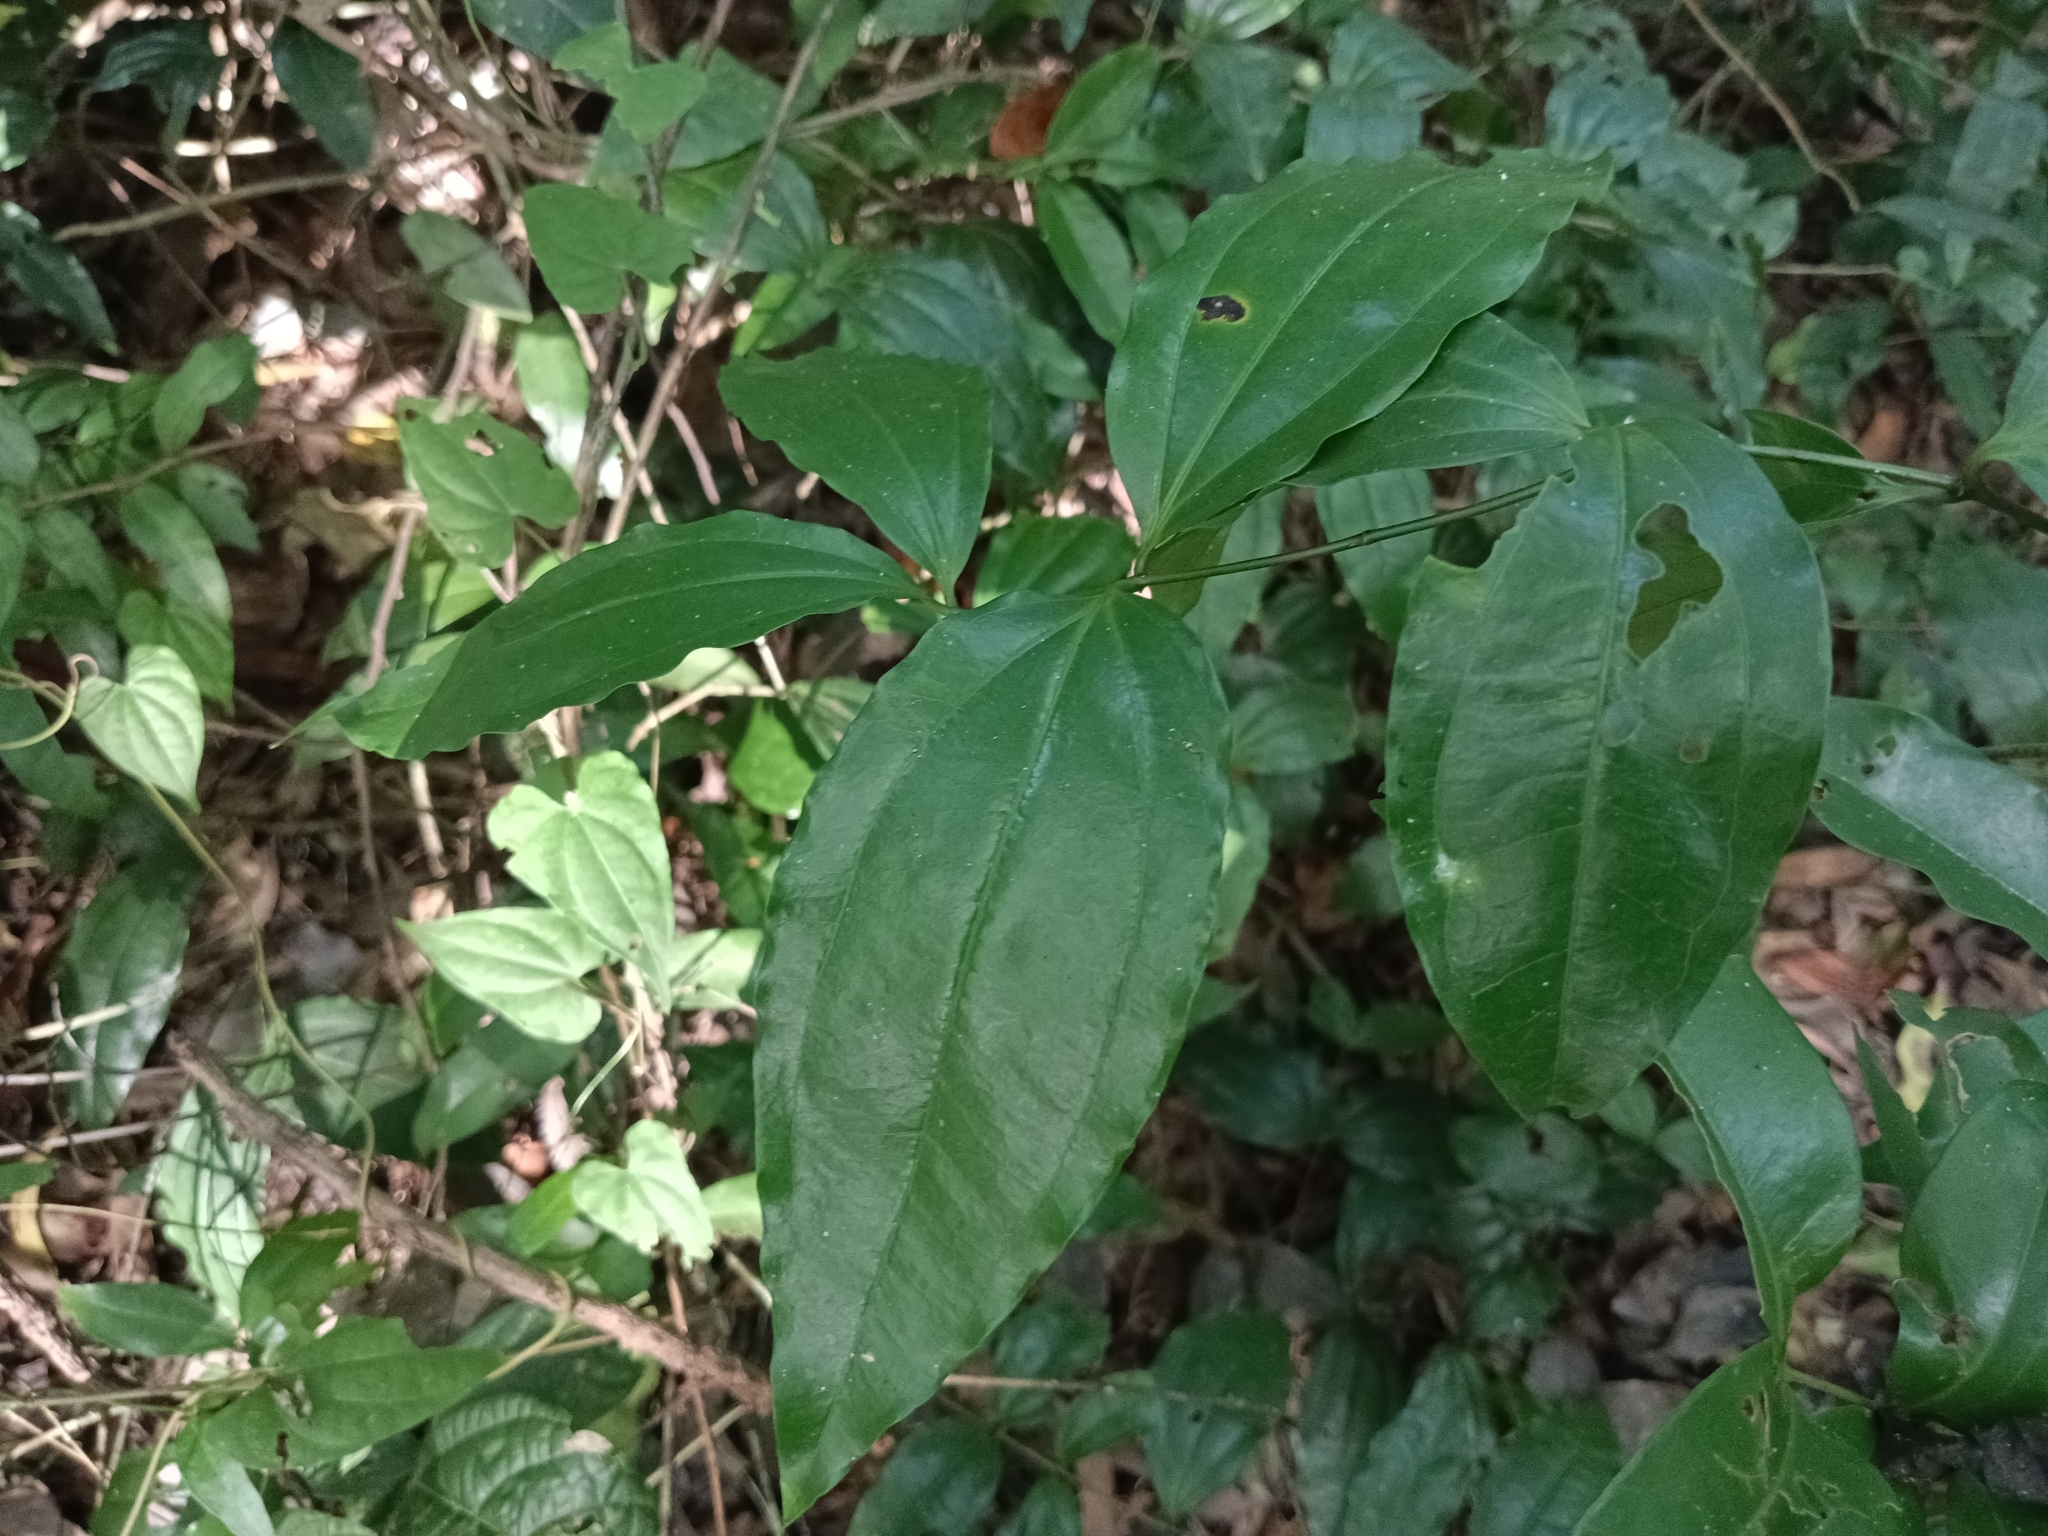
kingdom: Plantae
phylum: Tracheophyta
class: Magnoliopsida
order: Ranunculales
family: Menispermaceae
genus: Tiliacora
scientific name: Tiliacora acuminata
